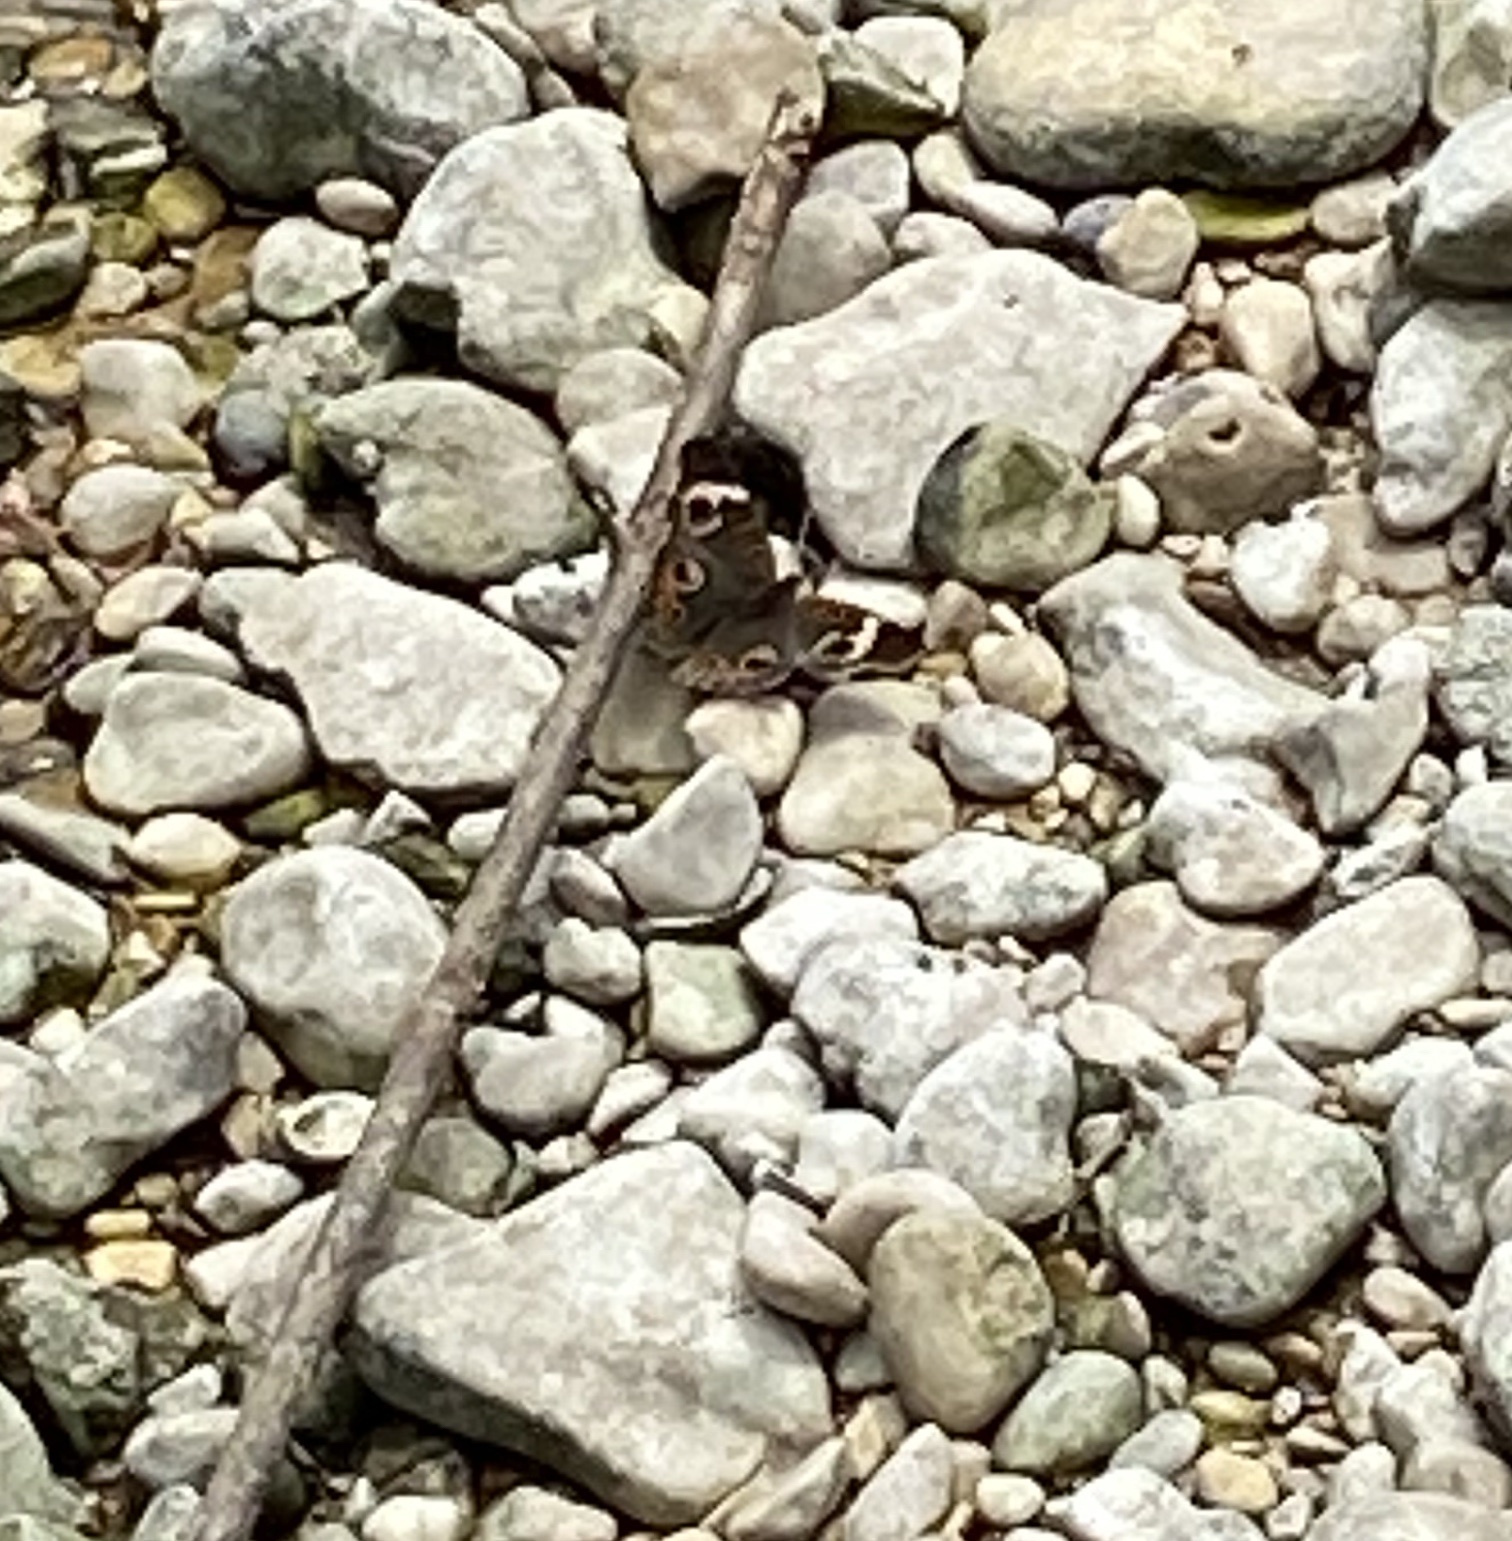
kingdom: Animalia
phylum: Arthropoda
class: Insecta
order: Lepidoptera
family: Nymphalidae
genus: Junonia
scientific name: Junonia coenia
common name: Common buckeye
